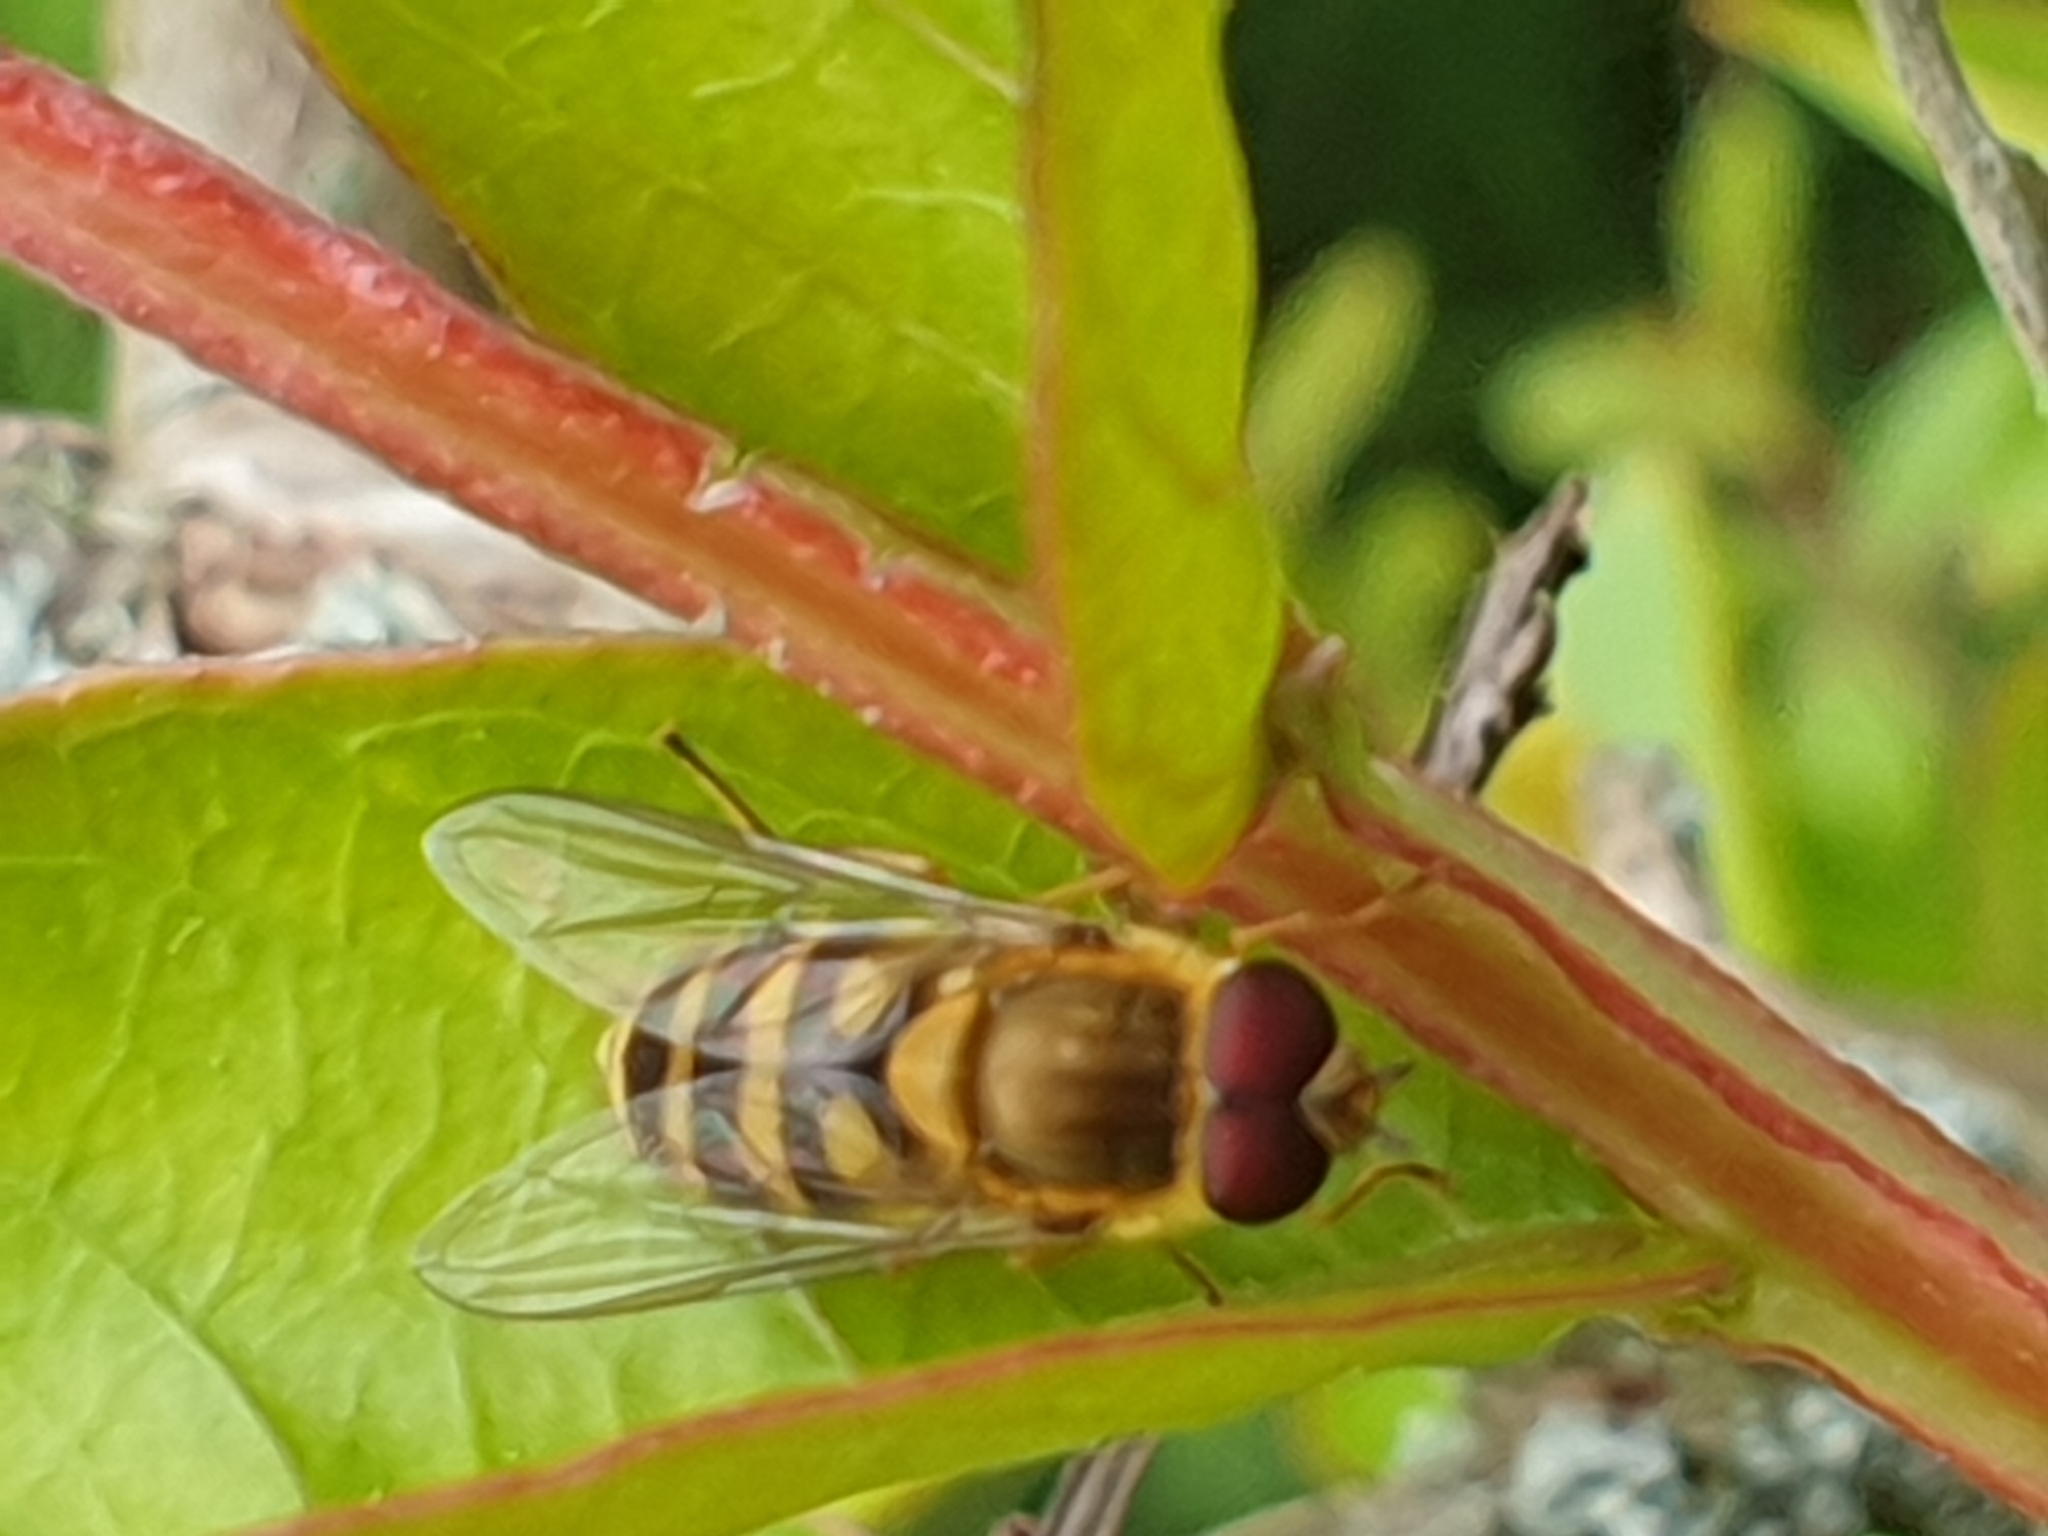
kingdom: Animalia
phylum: Arthropoda
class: Insecta
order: Diptera
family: Syrphidae
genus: Syrphus
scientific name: Syrphus
